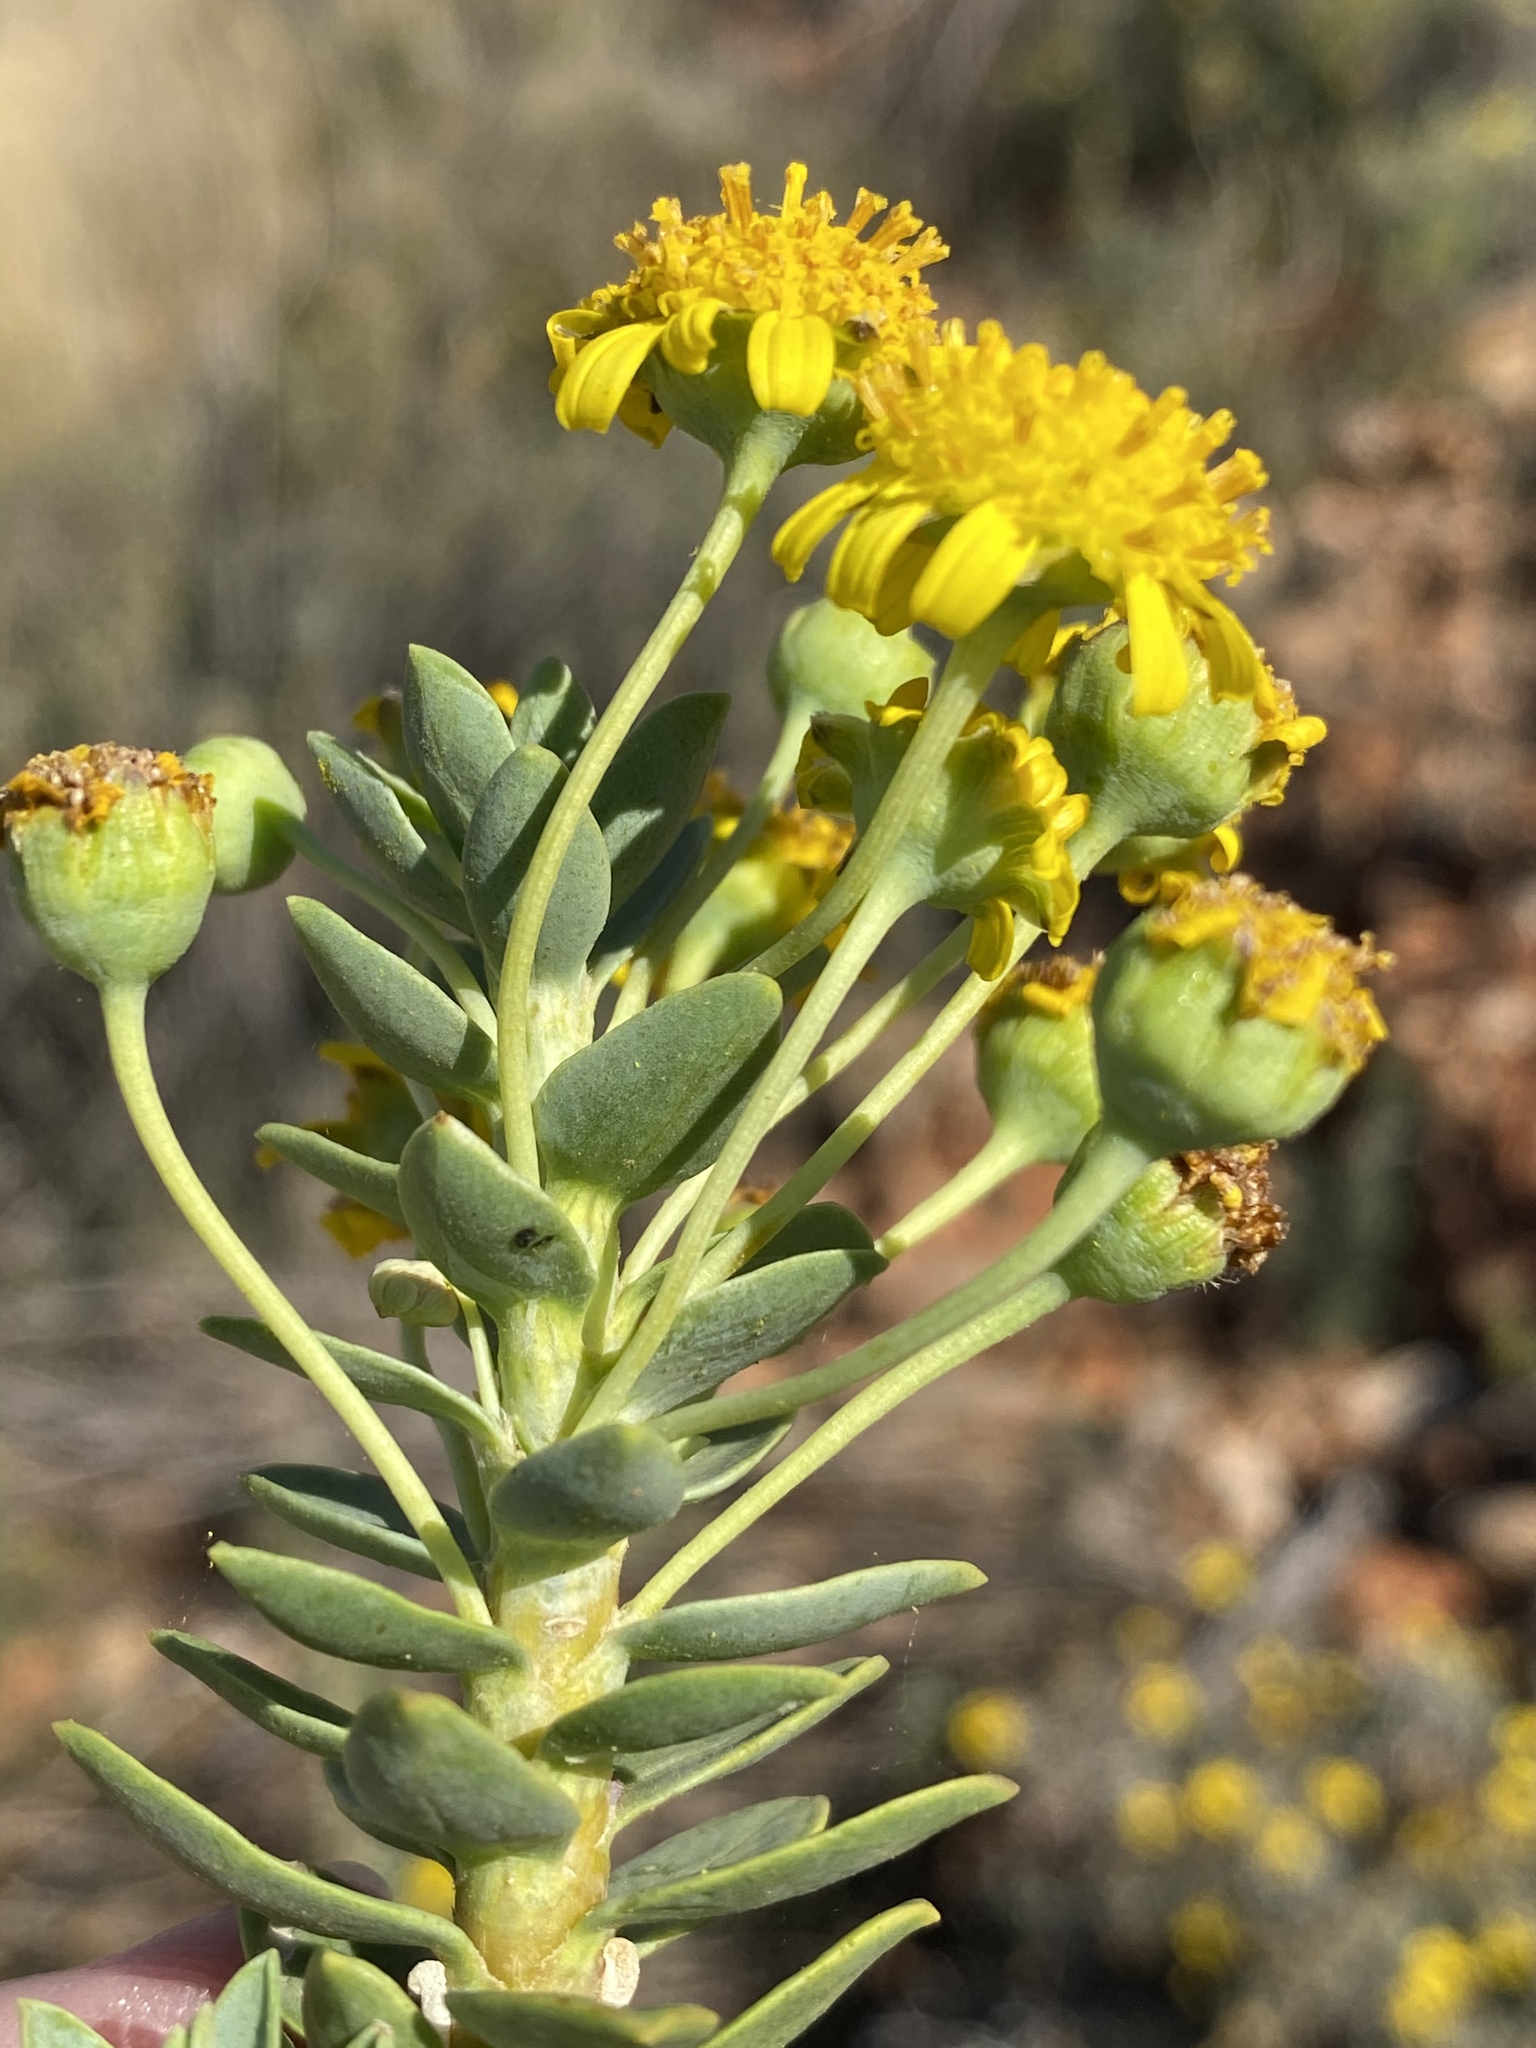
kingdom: Plantae
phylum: Tracheophyta
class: Magnoliopsida
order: Asterales
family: Asteraceae
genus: Euryops
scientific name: Euryops lateriflorus
